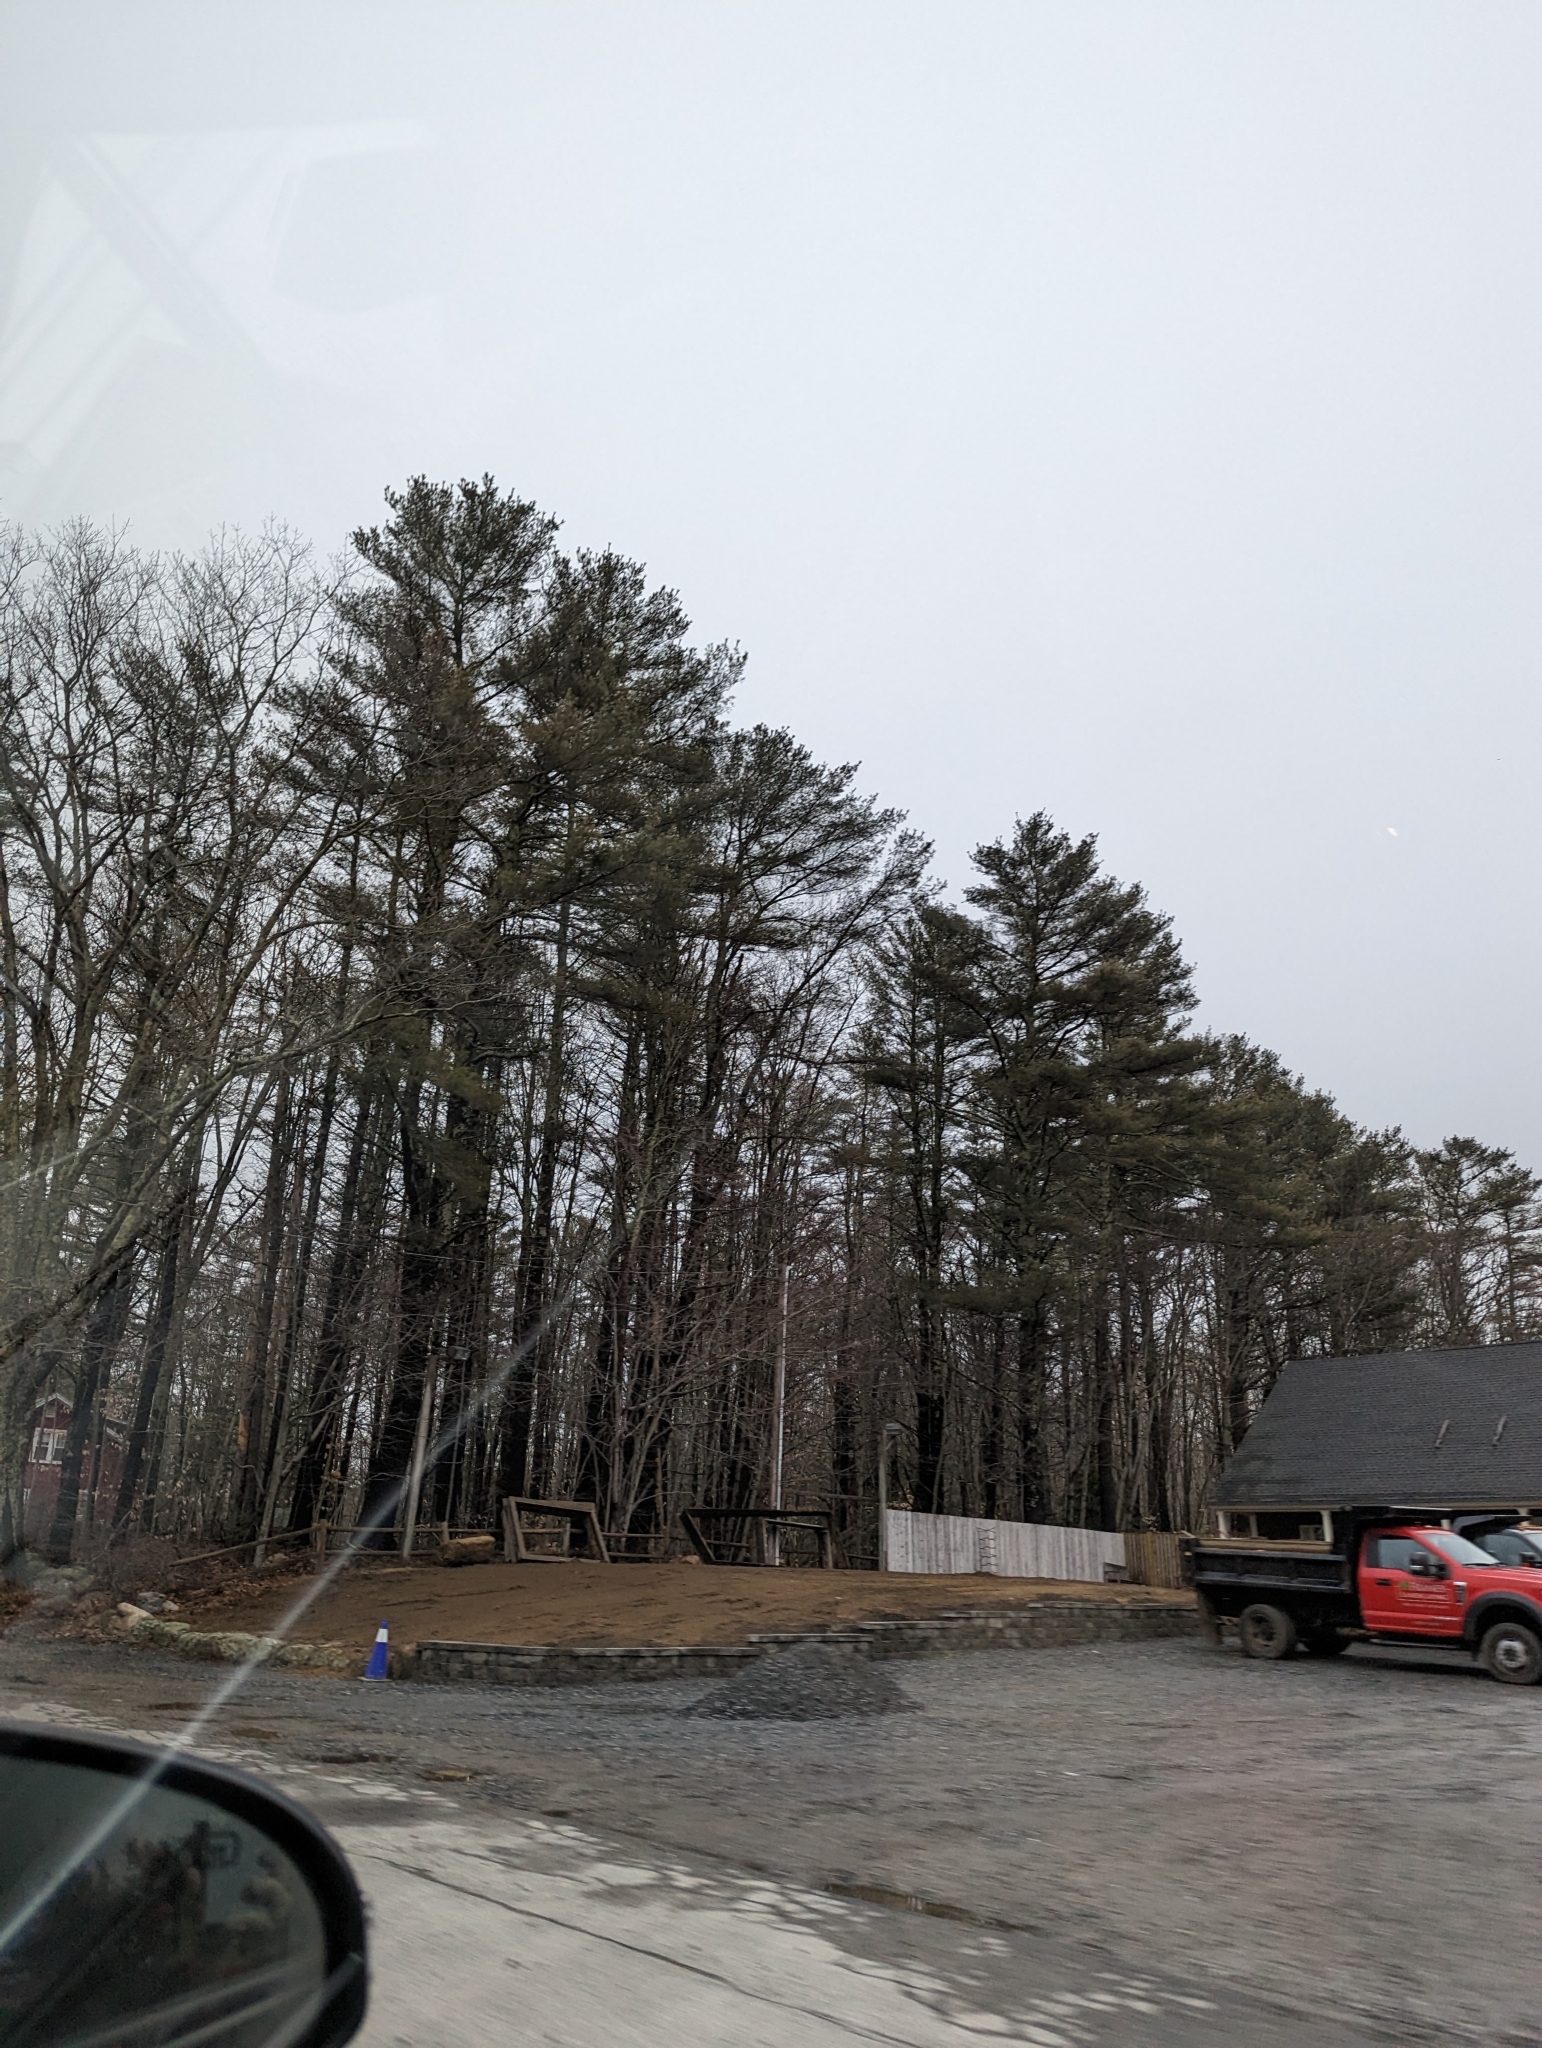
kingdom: Plantae
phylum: Tracheophyta
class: Pinopsida
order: Pinales
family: Pinaceae
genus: Pinus
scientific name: Pinus strobus
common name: Weymouth pine
